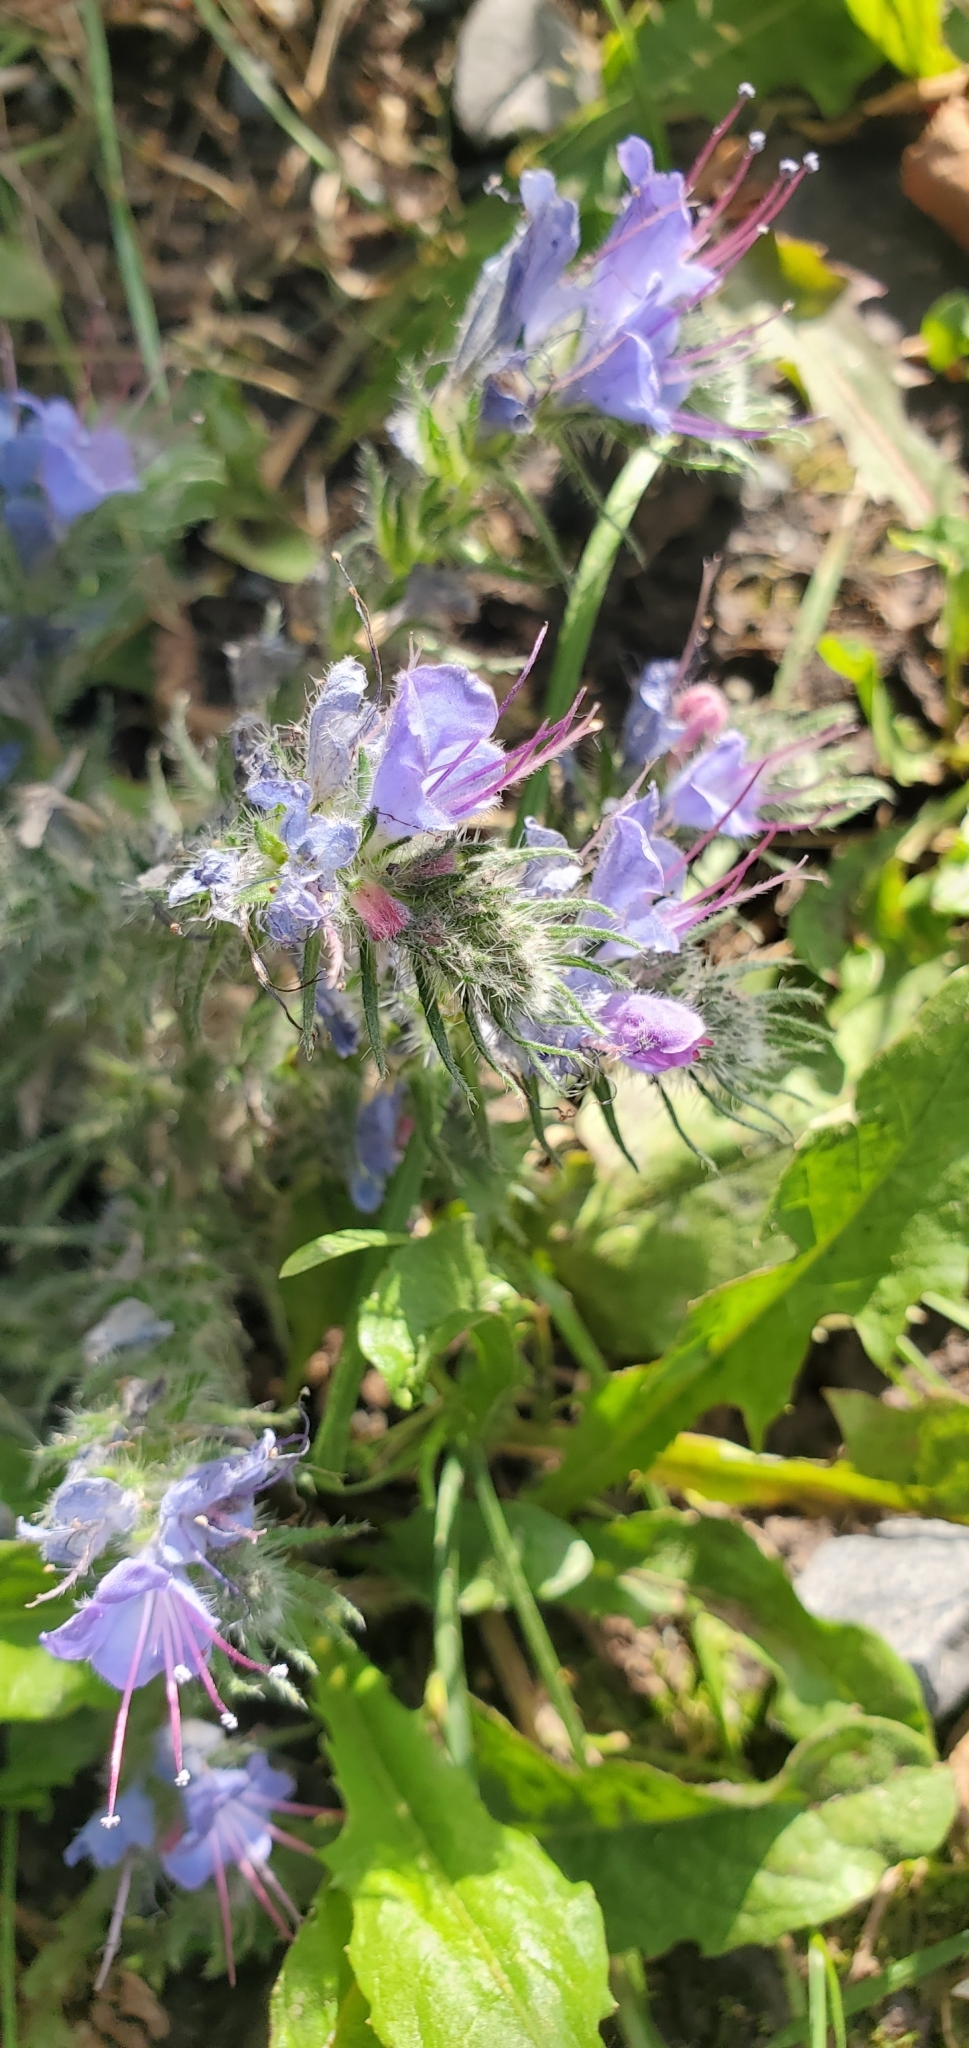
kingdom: Plantae
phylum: Tracheophyta
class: Magnoliopsida
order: Boraginales
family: Boraginaceae
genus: Echium
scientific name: Echium vulgare
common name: Common viper's bugloss
